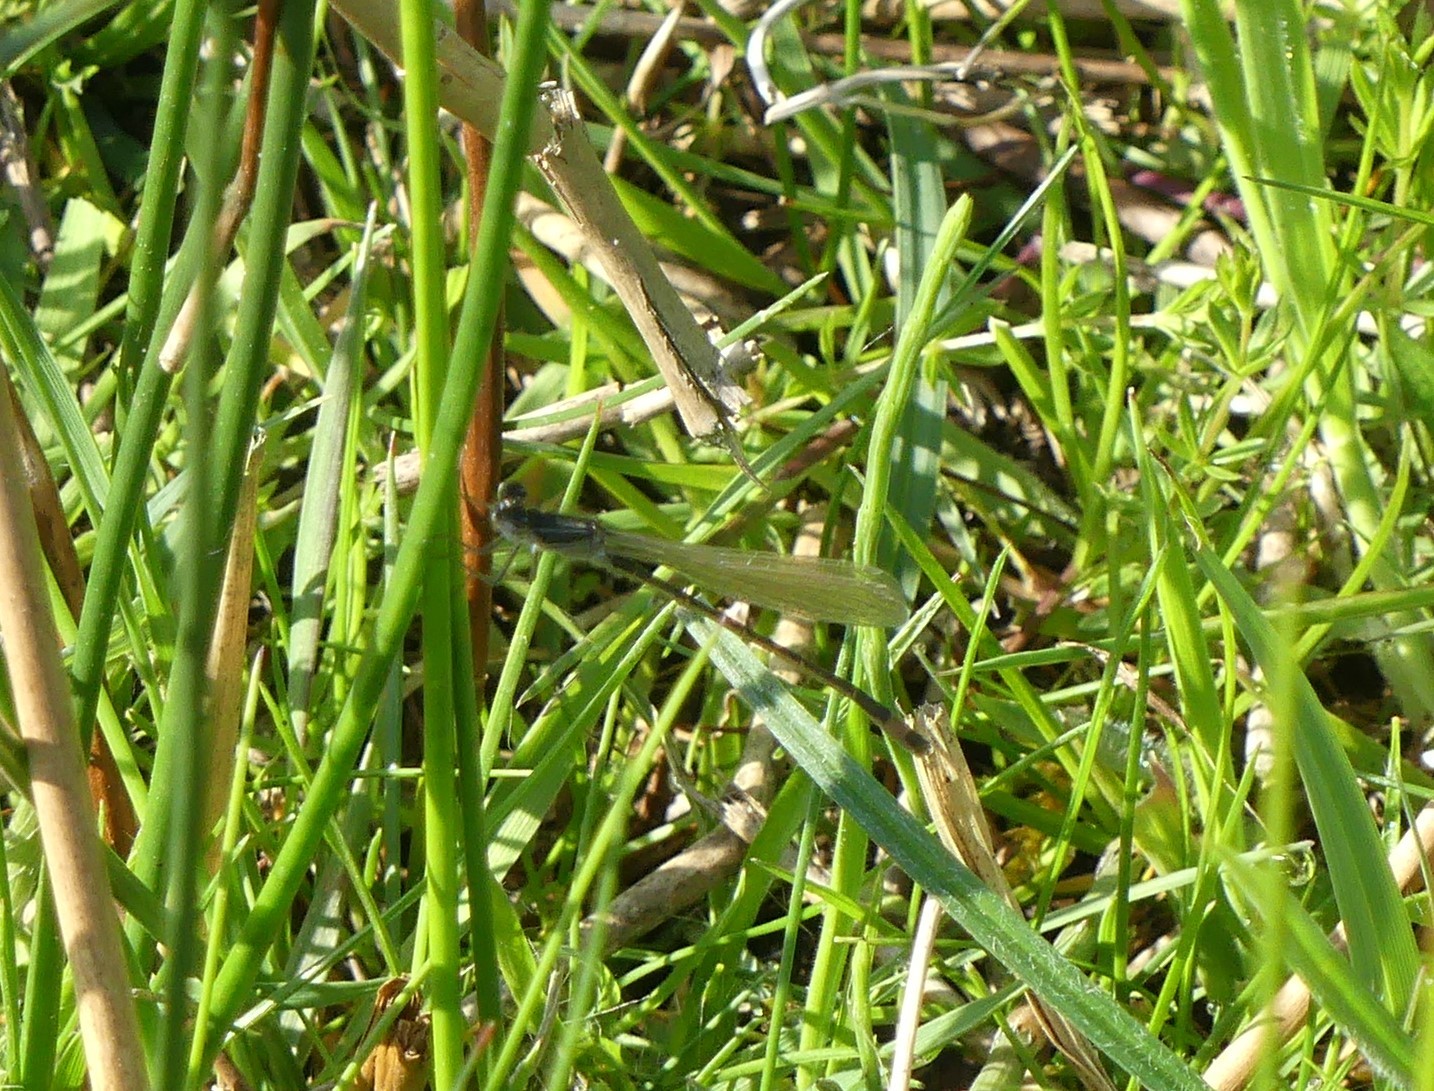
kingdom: Animalia
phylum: Arthropoda
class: Insecta
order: Odonata
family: Coenagrionidae
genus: Ischnura
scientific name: Ischnura elegans
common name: Blue-tailed damselfly
